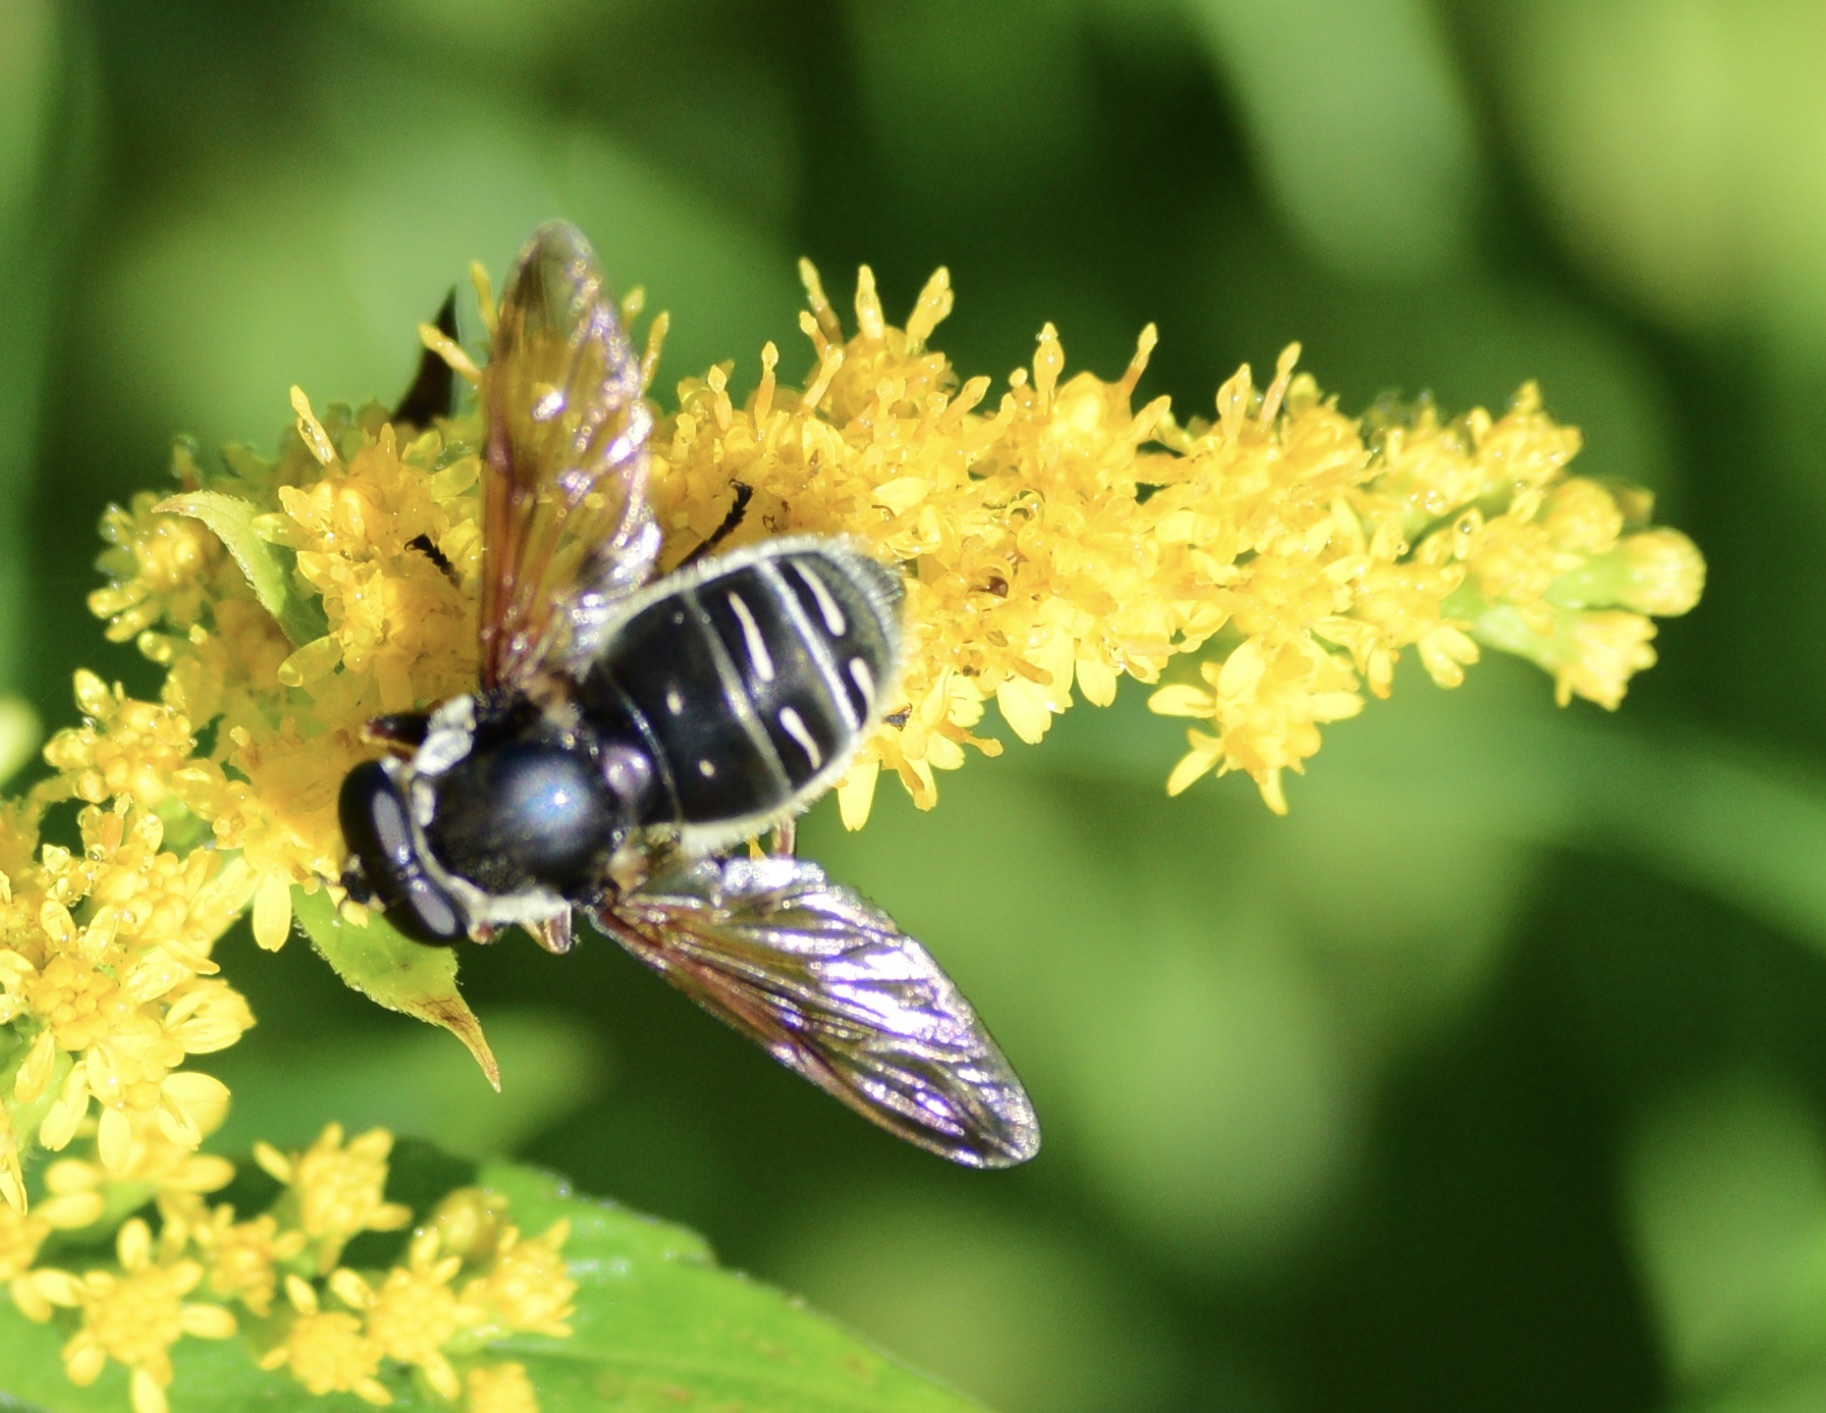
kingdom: Animalia
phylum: Arthropoda
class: Insecta
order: Diptera
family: Syrphidae
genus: Sericomyia
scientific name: Sericomyia militaris
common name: Narrow-banded pond fly
